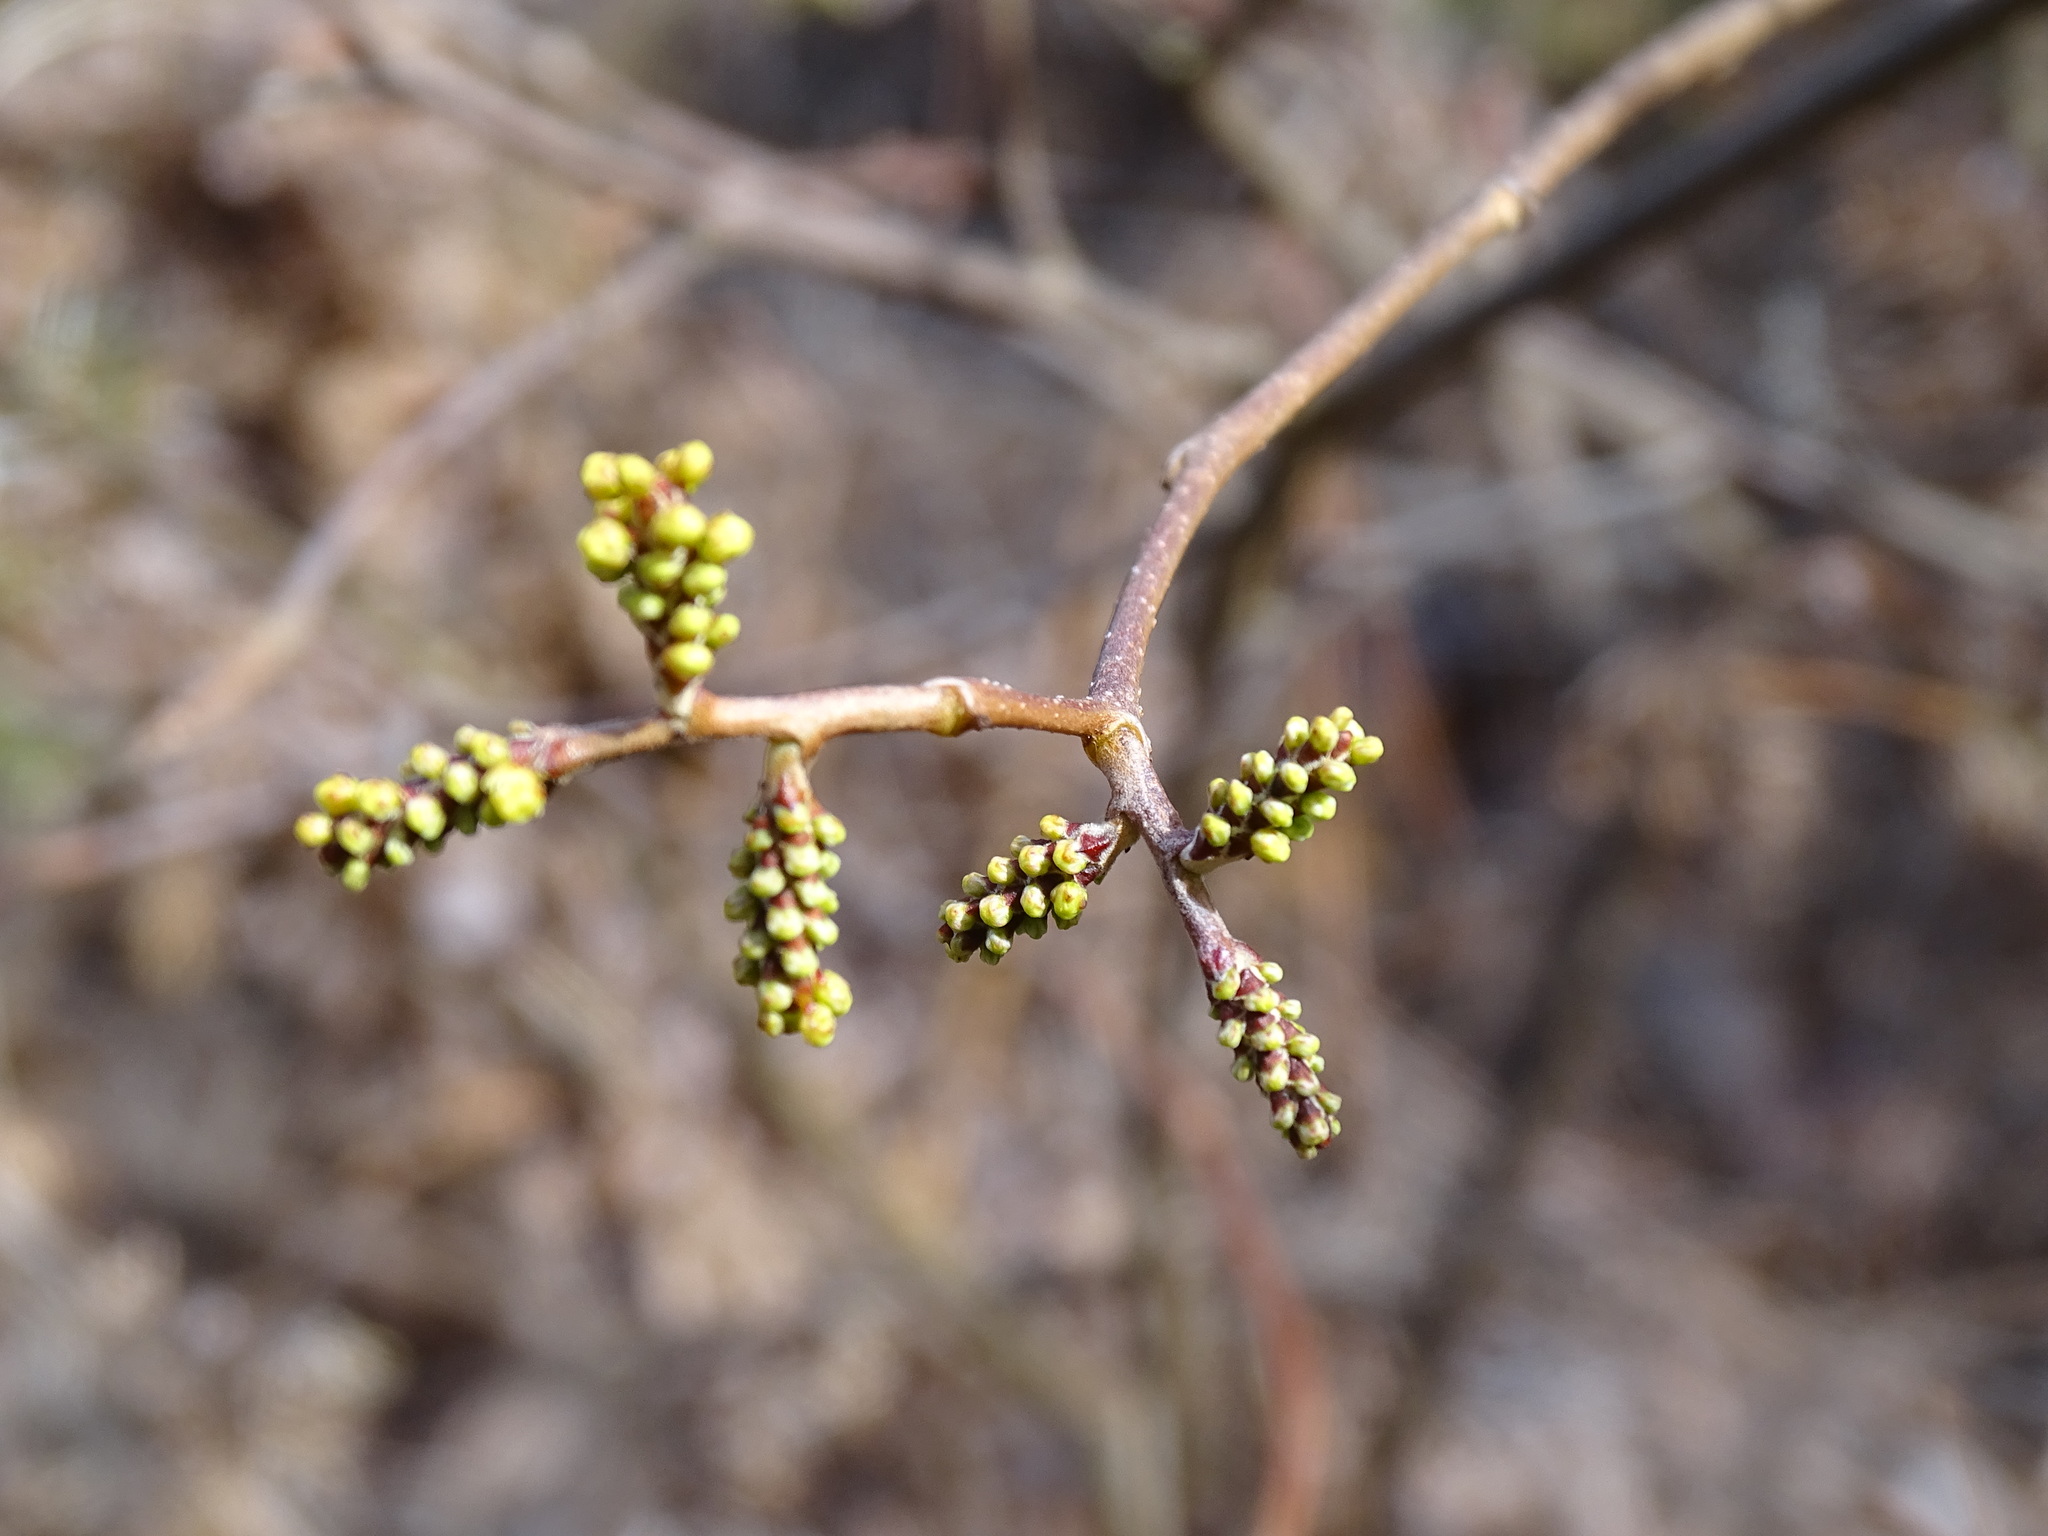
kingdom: Plantae
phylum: Tracheophyta
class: Magnoliopsida
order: Sapindales
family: Anacardiaceae
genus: Rhus
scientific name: Rhus aromatica
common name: Aromatic sumac
